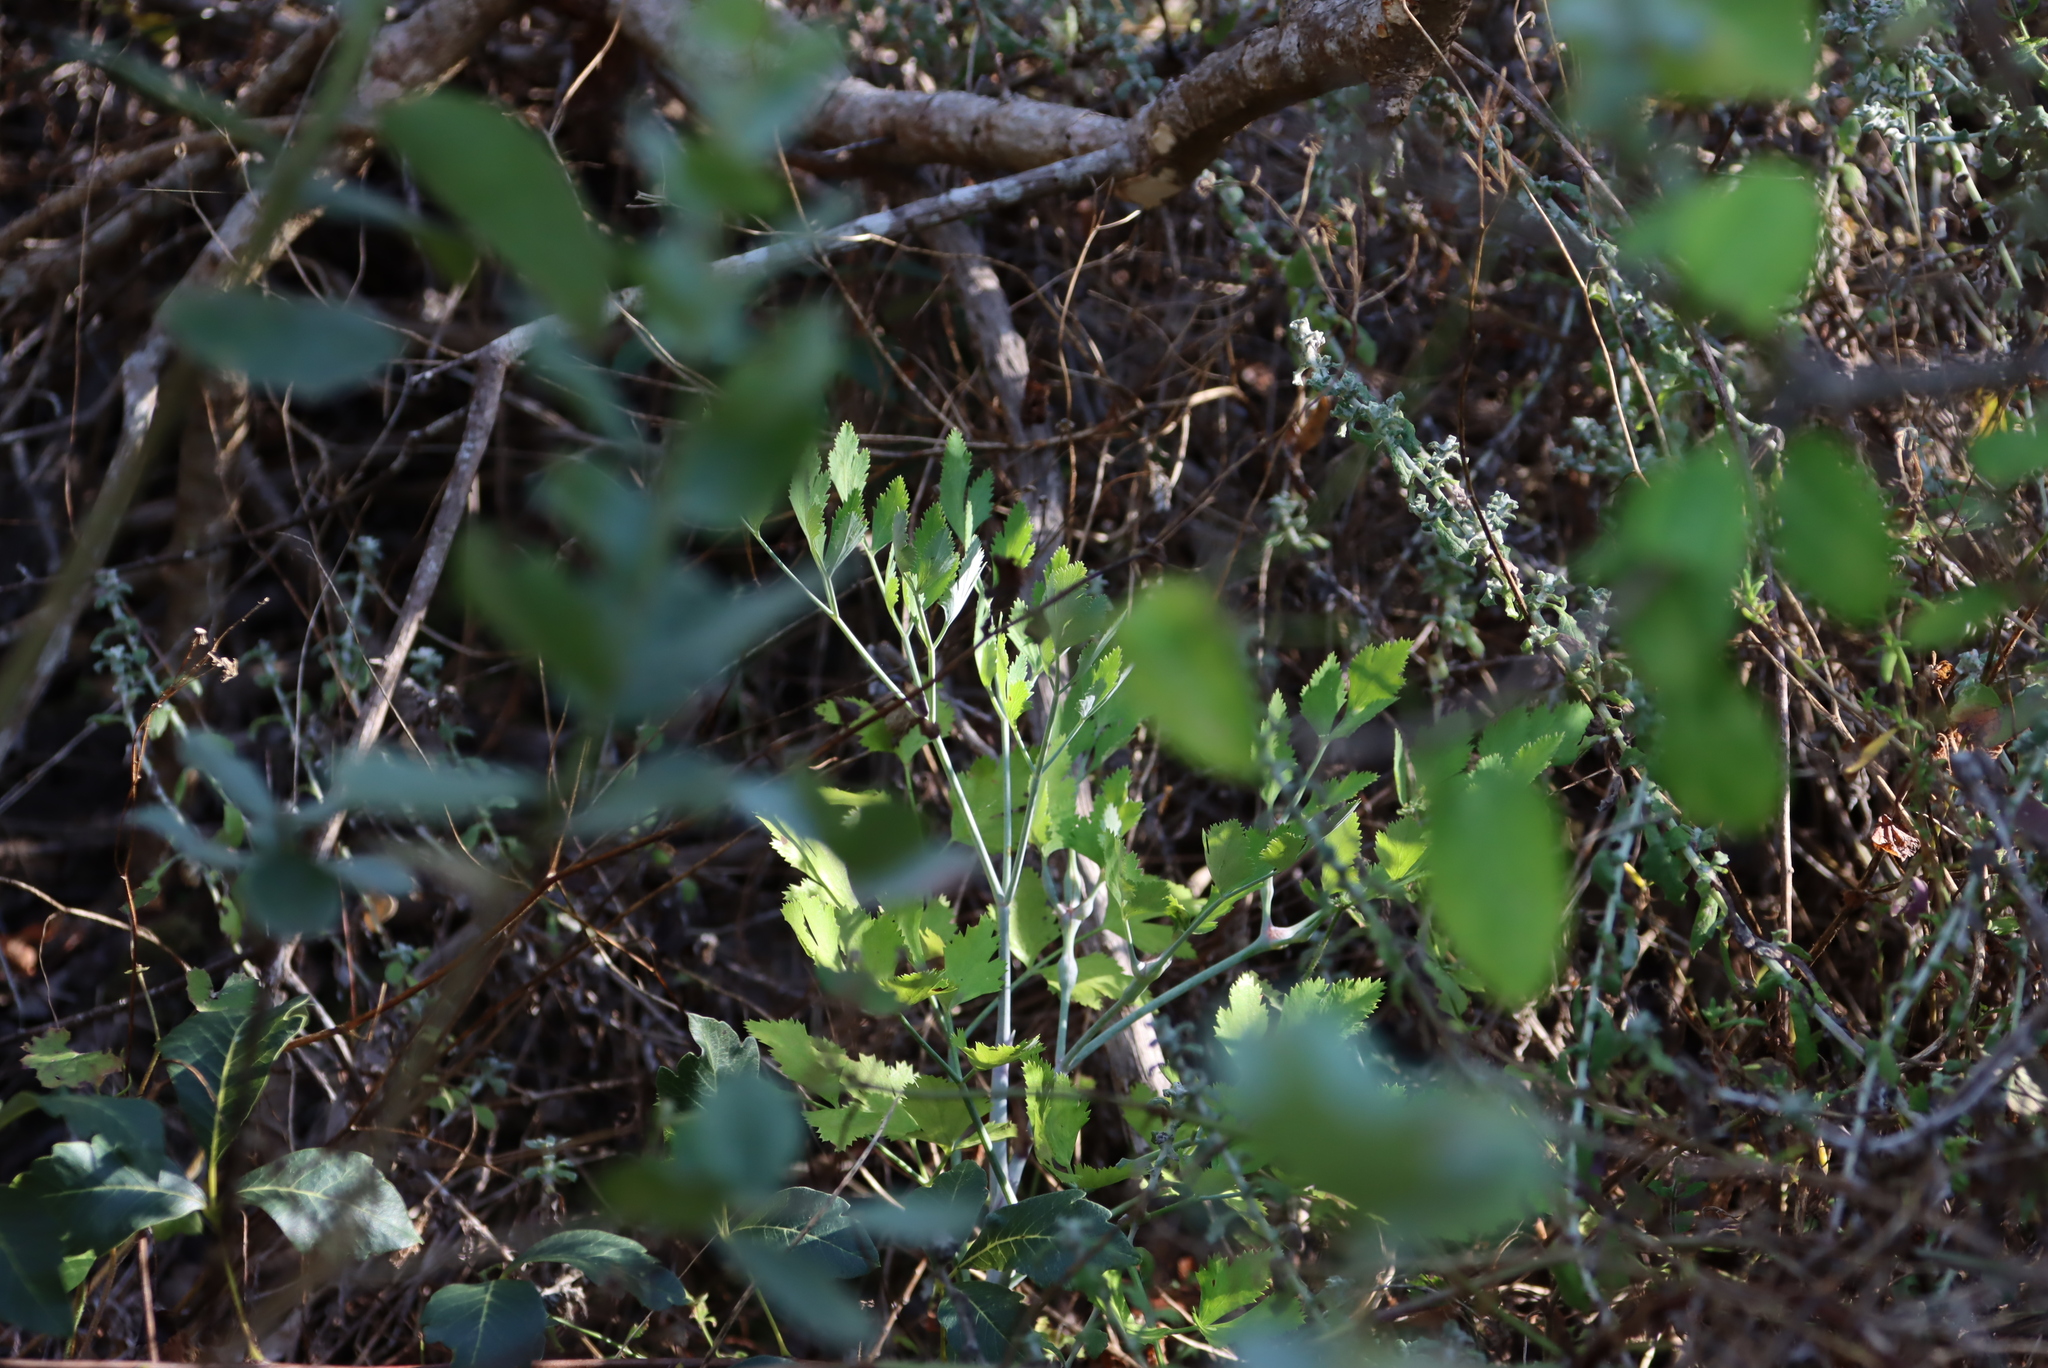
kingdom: Plantae
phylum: Tracheophyta
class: Magnoliopsida
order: Apiales
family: Apiaceae
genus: Notobubon
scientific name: Notobubon galbanum
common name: Blisterbush
